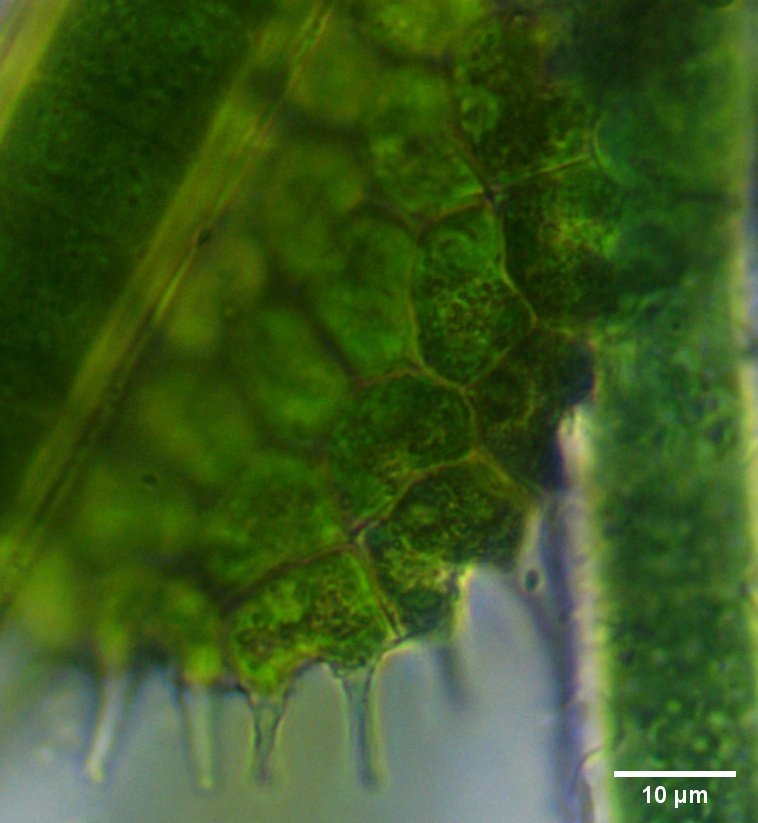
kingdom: Plantae
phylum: Chlorophyta
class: Chlorophyceae
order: Sphaeropleales
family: Hydrodictyaceae
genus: Pseudopediastrum
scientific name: Pseudopediastrum boryanum
